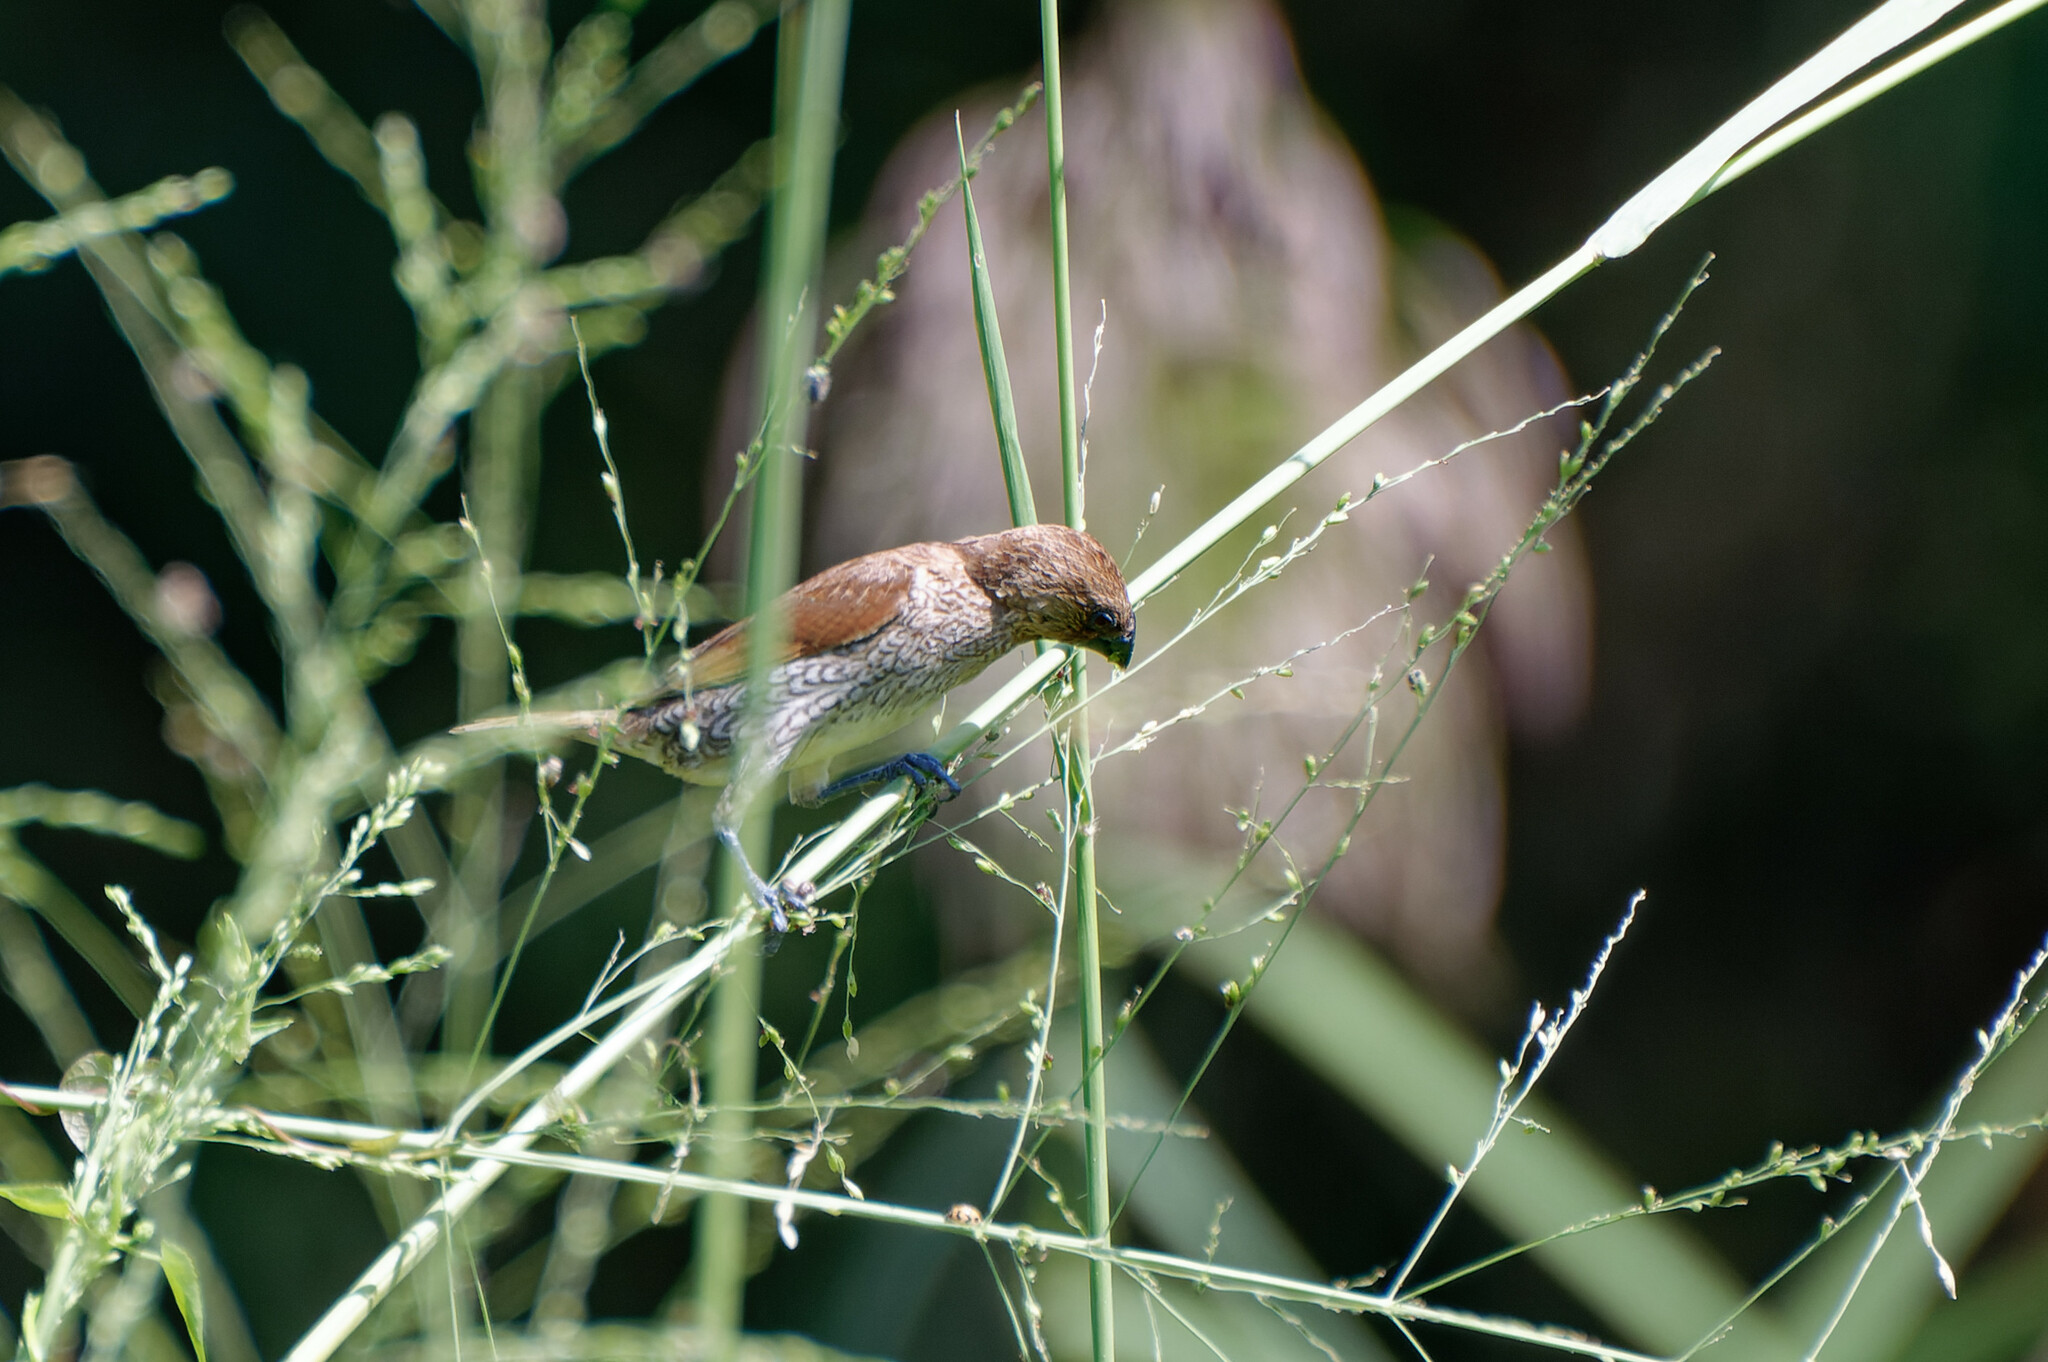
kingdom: Animalia
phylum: Chordata
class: Aves
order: Passeriformes
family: Estrildidae
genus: Lonchura
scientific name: Lonchura punctulata
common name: Scaly-breasted munia
